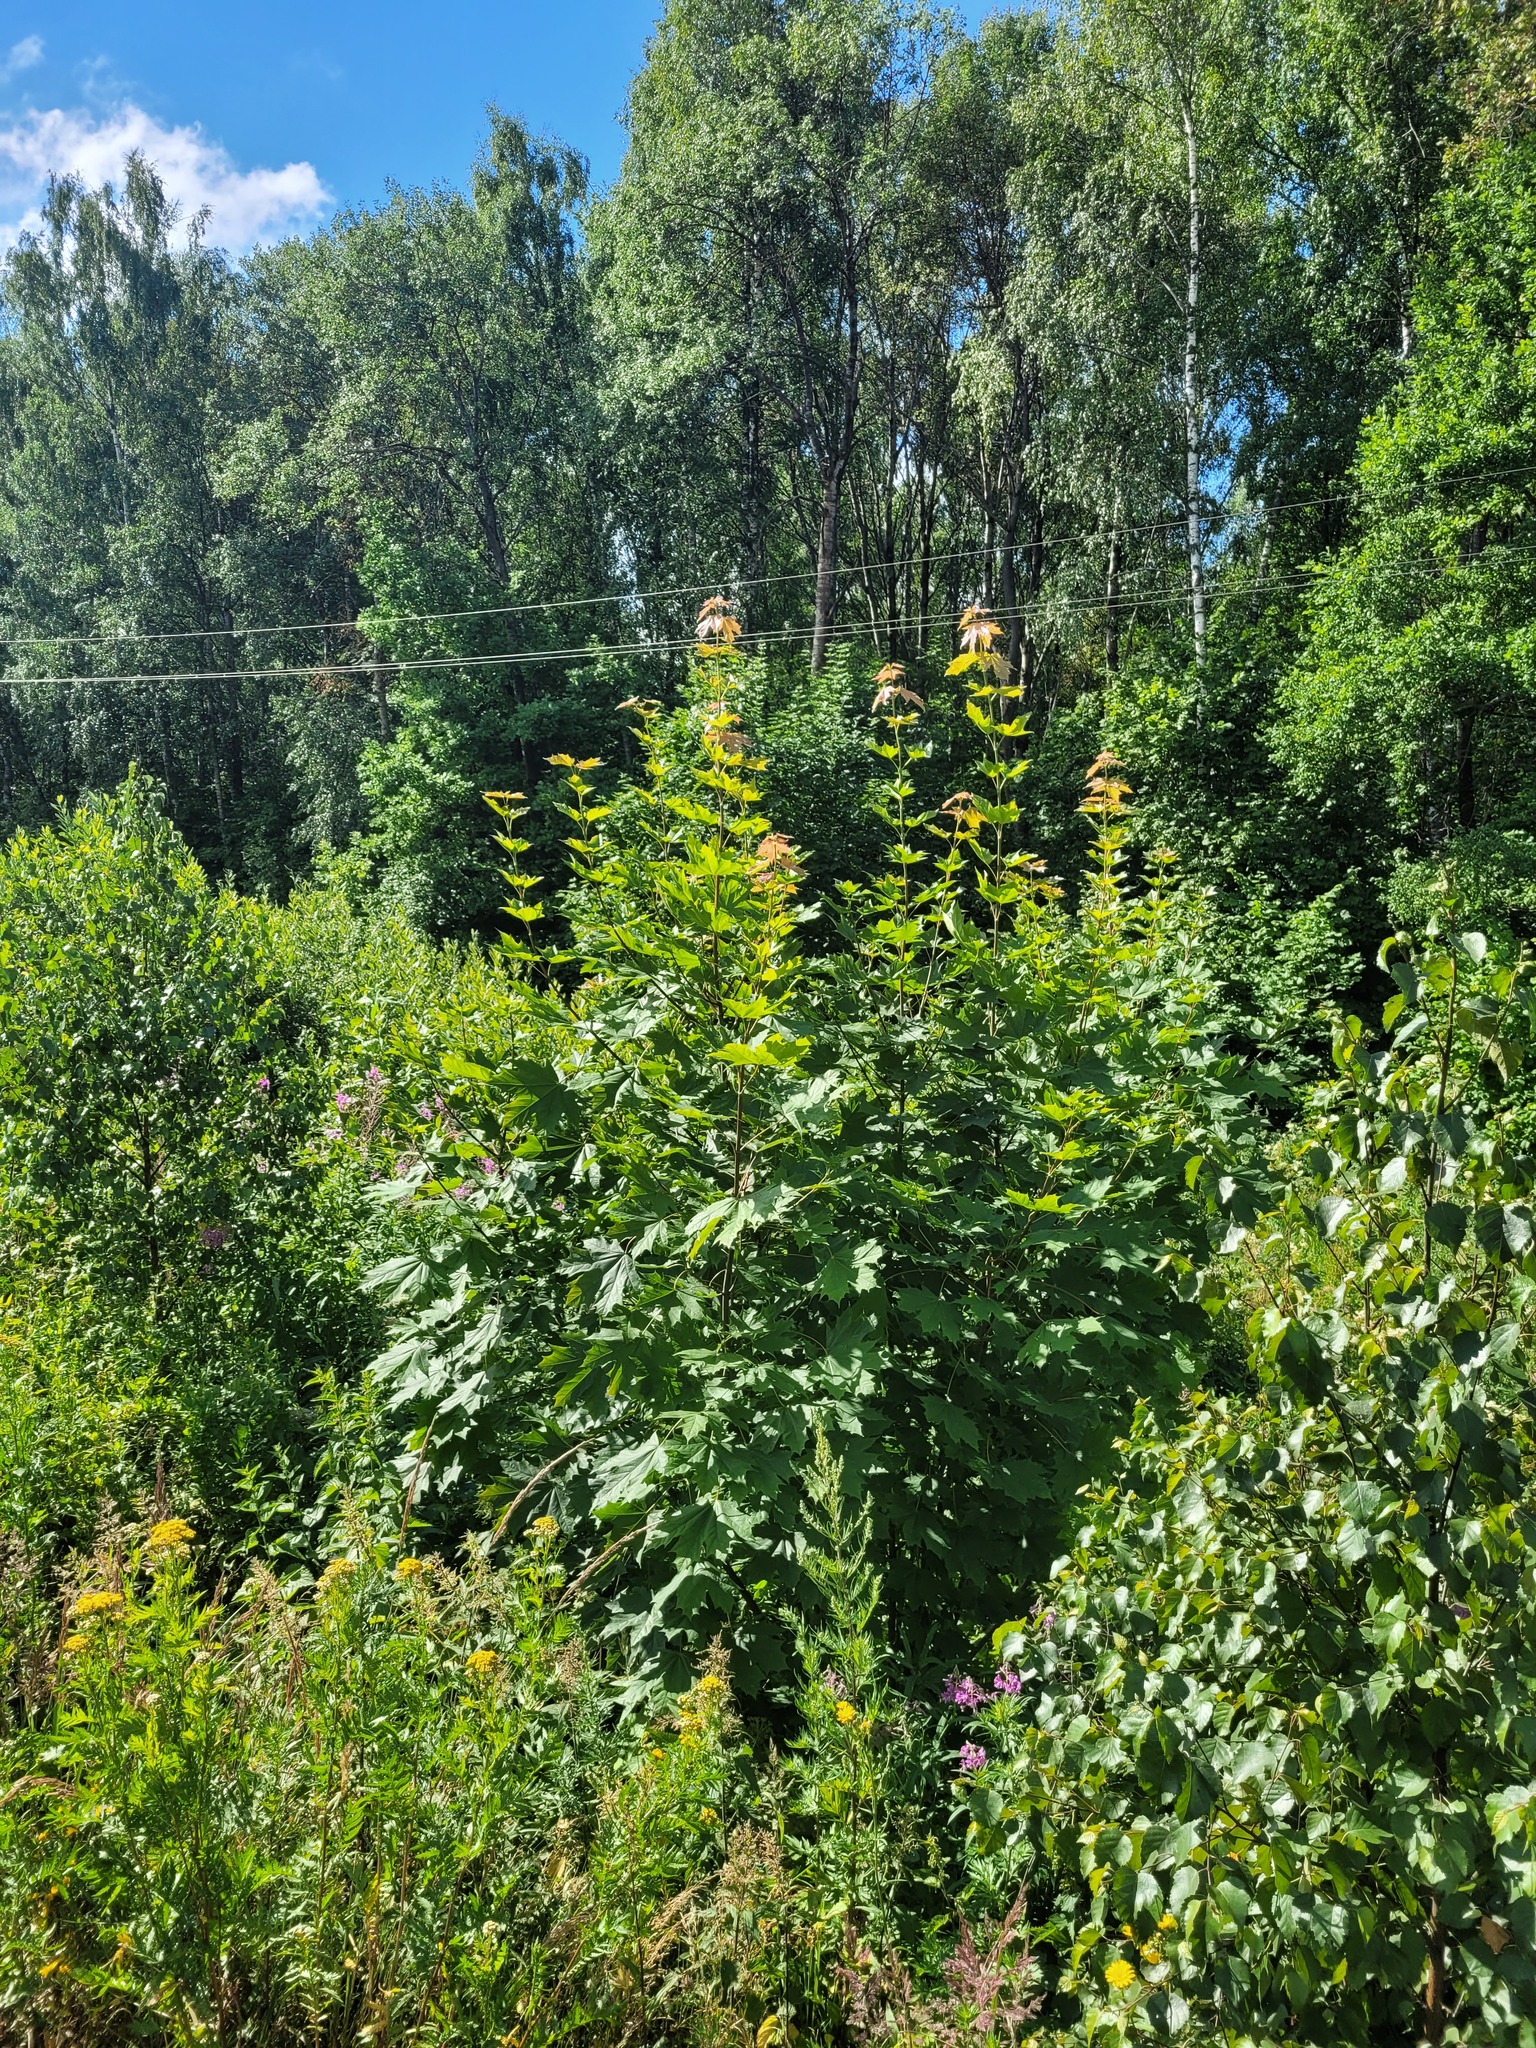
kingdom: Plantae
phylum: Tracheophyta
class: Magnoliopsida
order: Sapindales
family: Sapindaceae
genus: Acer
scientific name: Acer platanoides
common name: Norway maple
